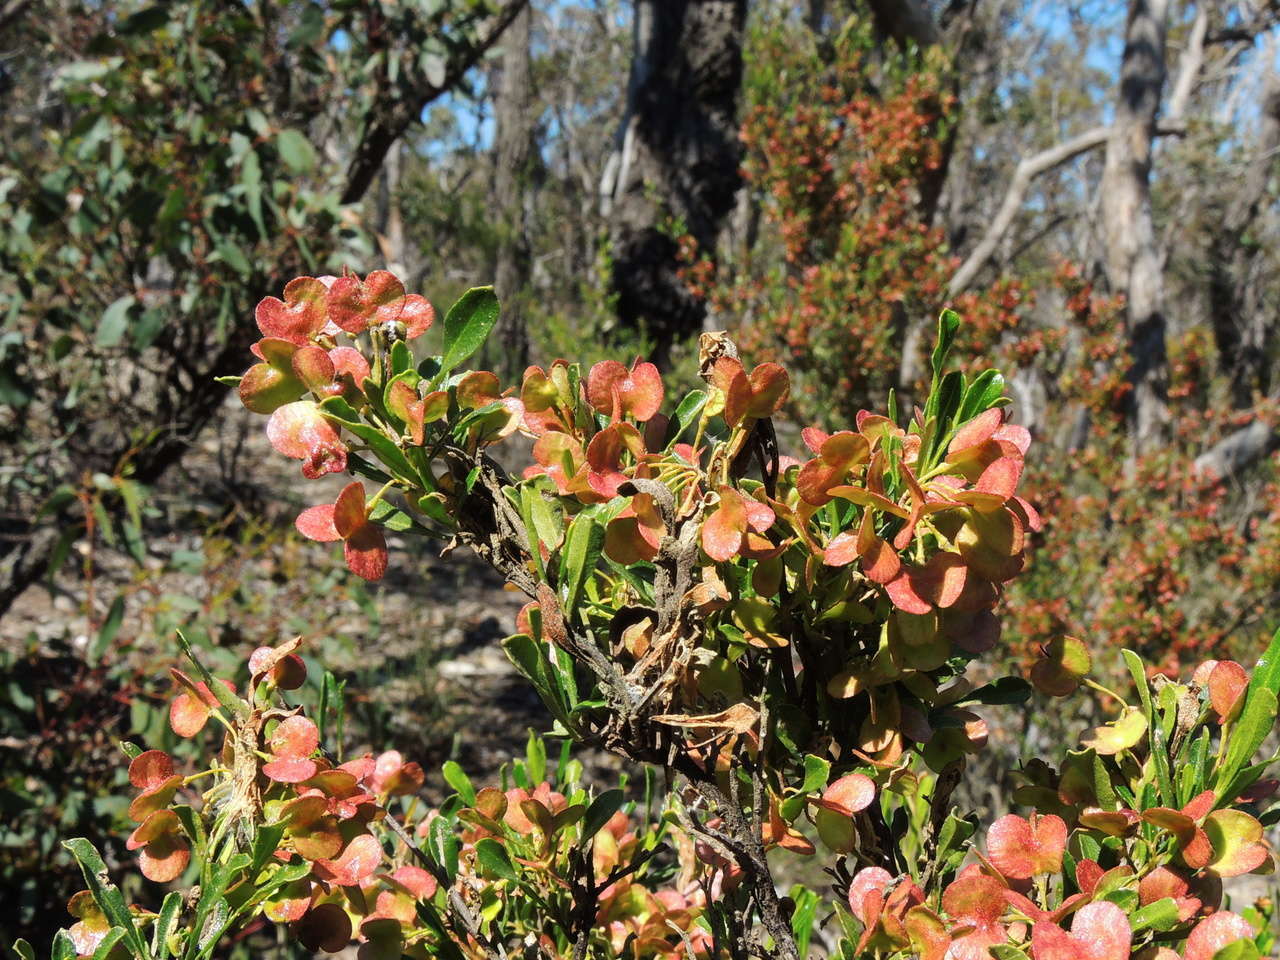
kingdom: Plantae
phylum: Tracheophyta
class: Magnoliopsida
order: Sapindales
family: Sapindaceae
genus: Dodonaea
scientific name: Dodonaea viscosa
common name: Hopbush
